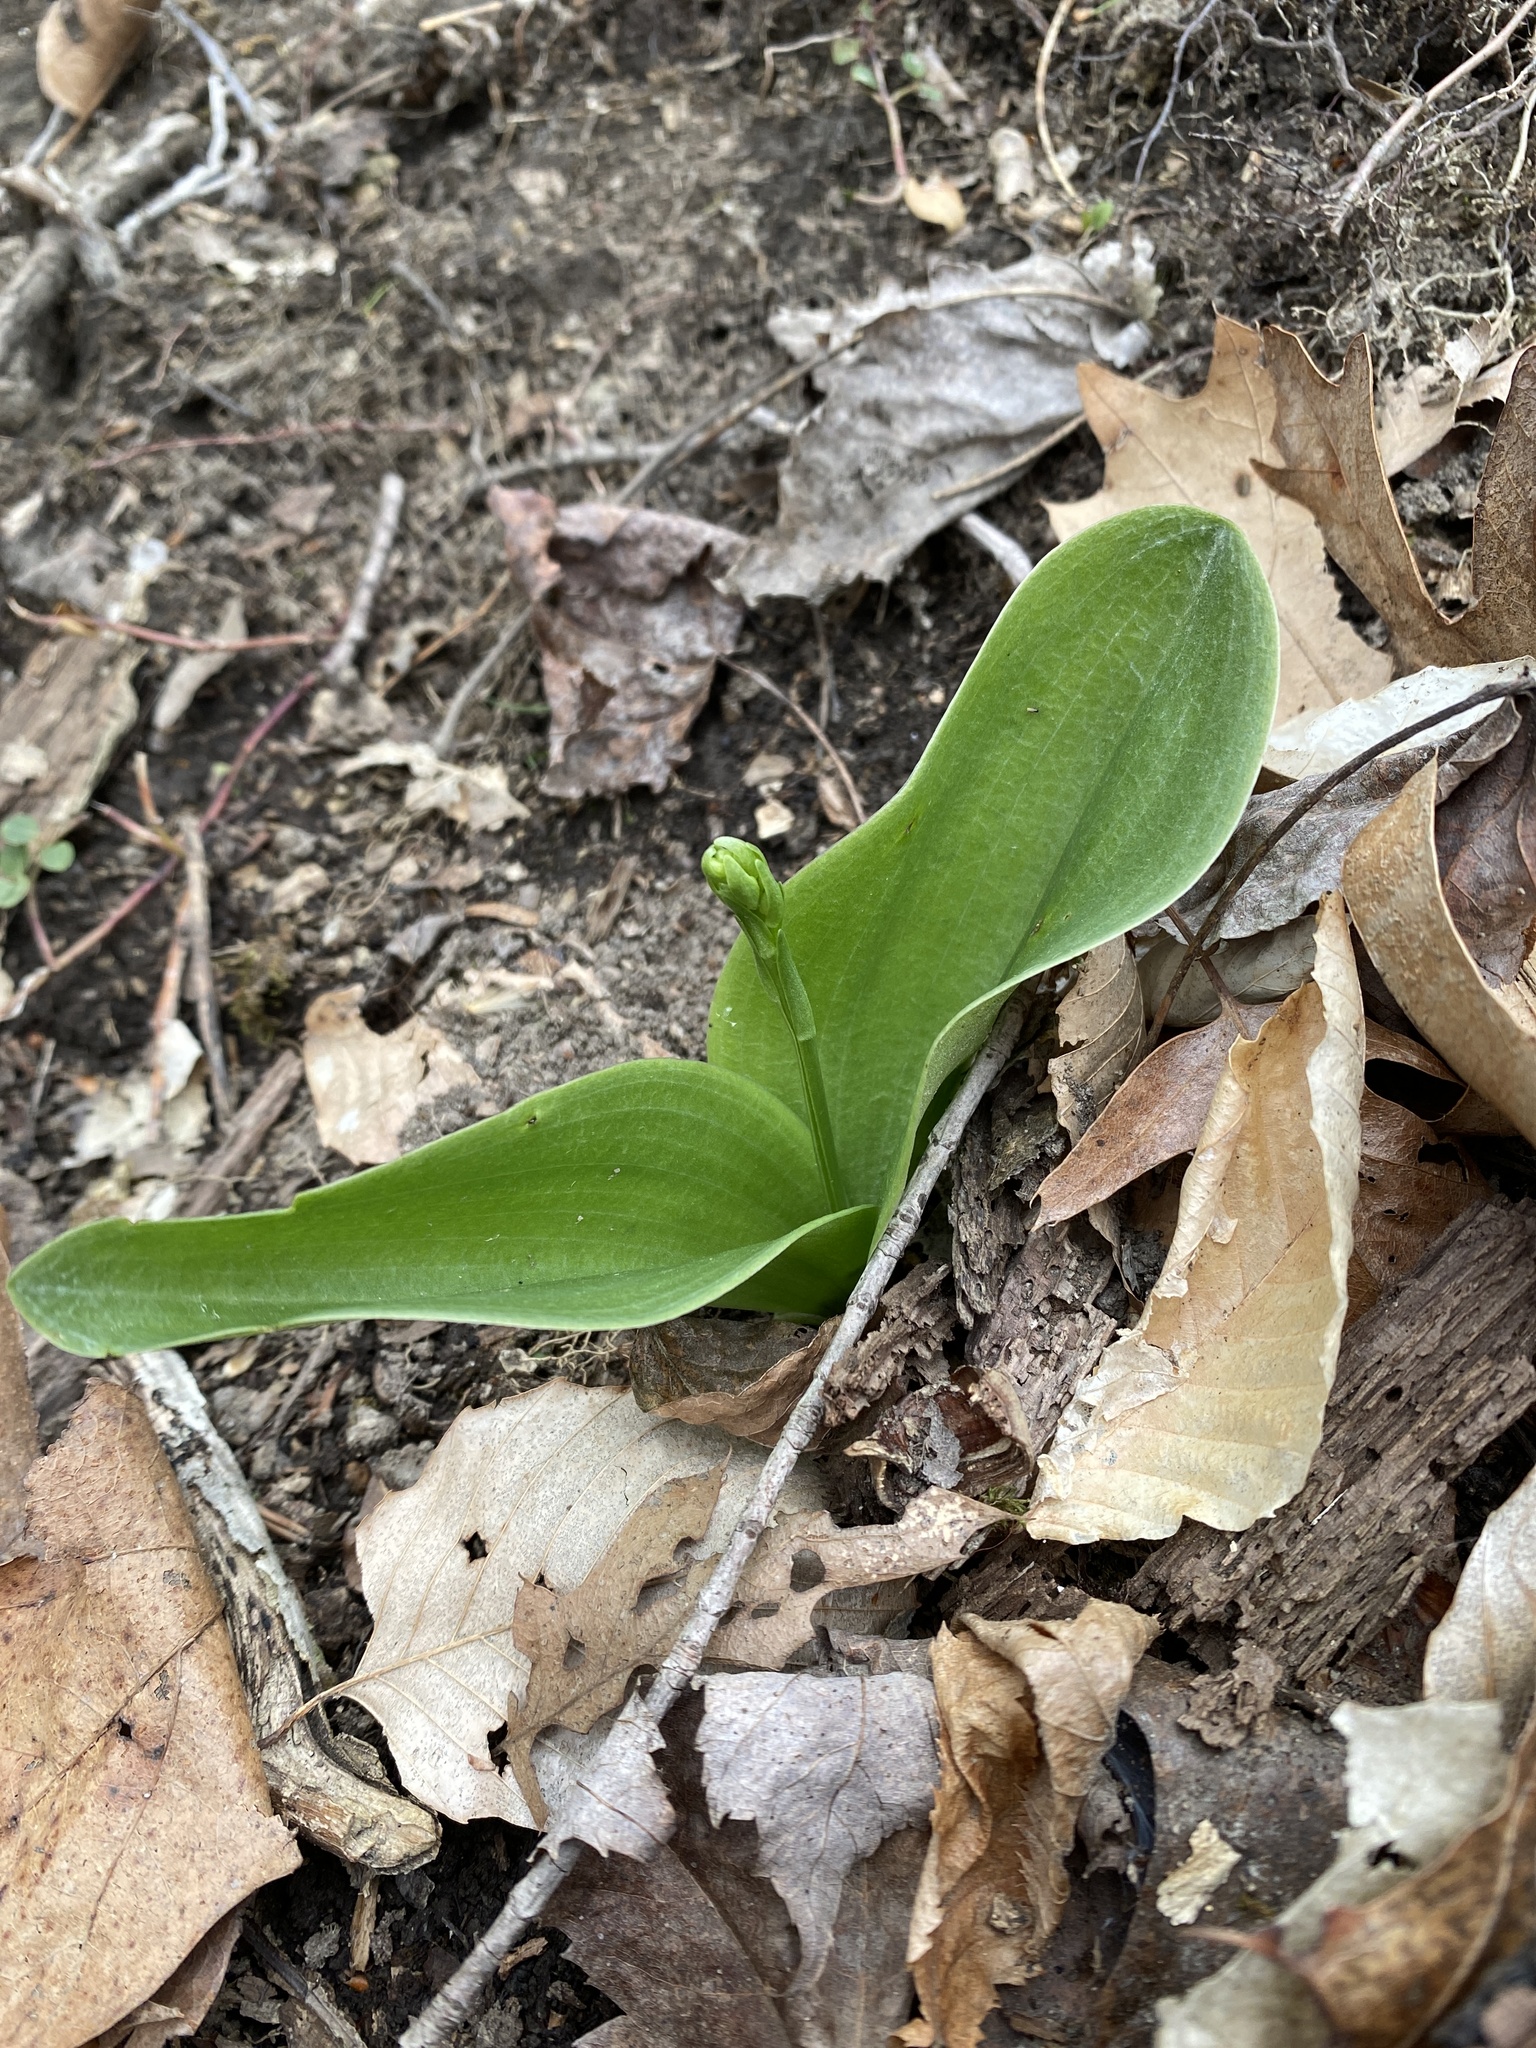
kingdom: Plantae
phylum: Tracheophyta
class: Liliopsida
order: Asparagales
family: Orchidaceae
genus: Platanthera
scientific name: Platanthera orbiculata
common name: Large round-leaved orchid
